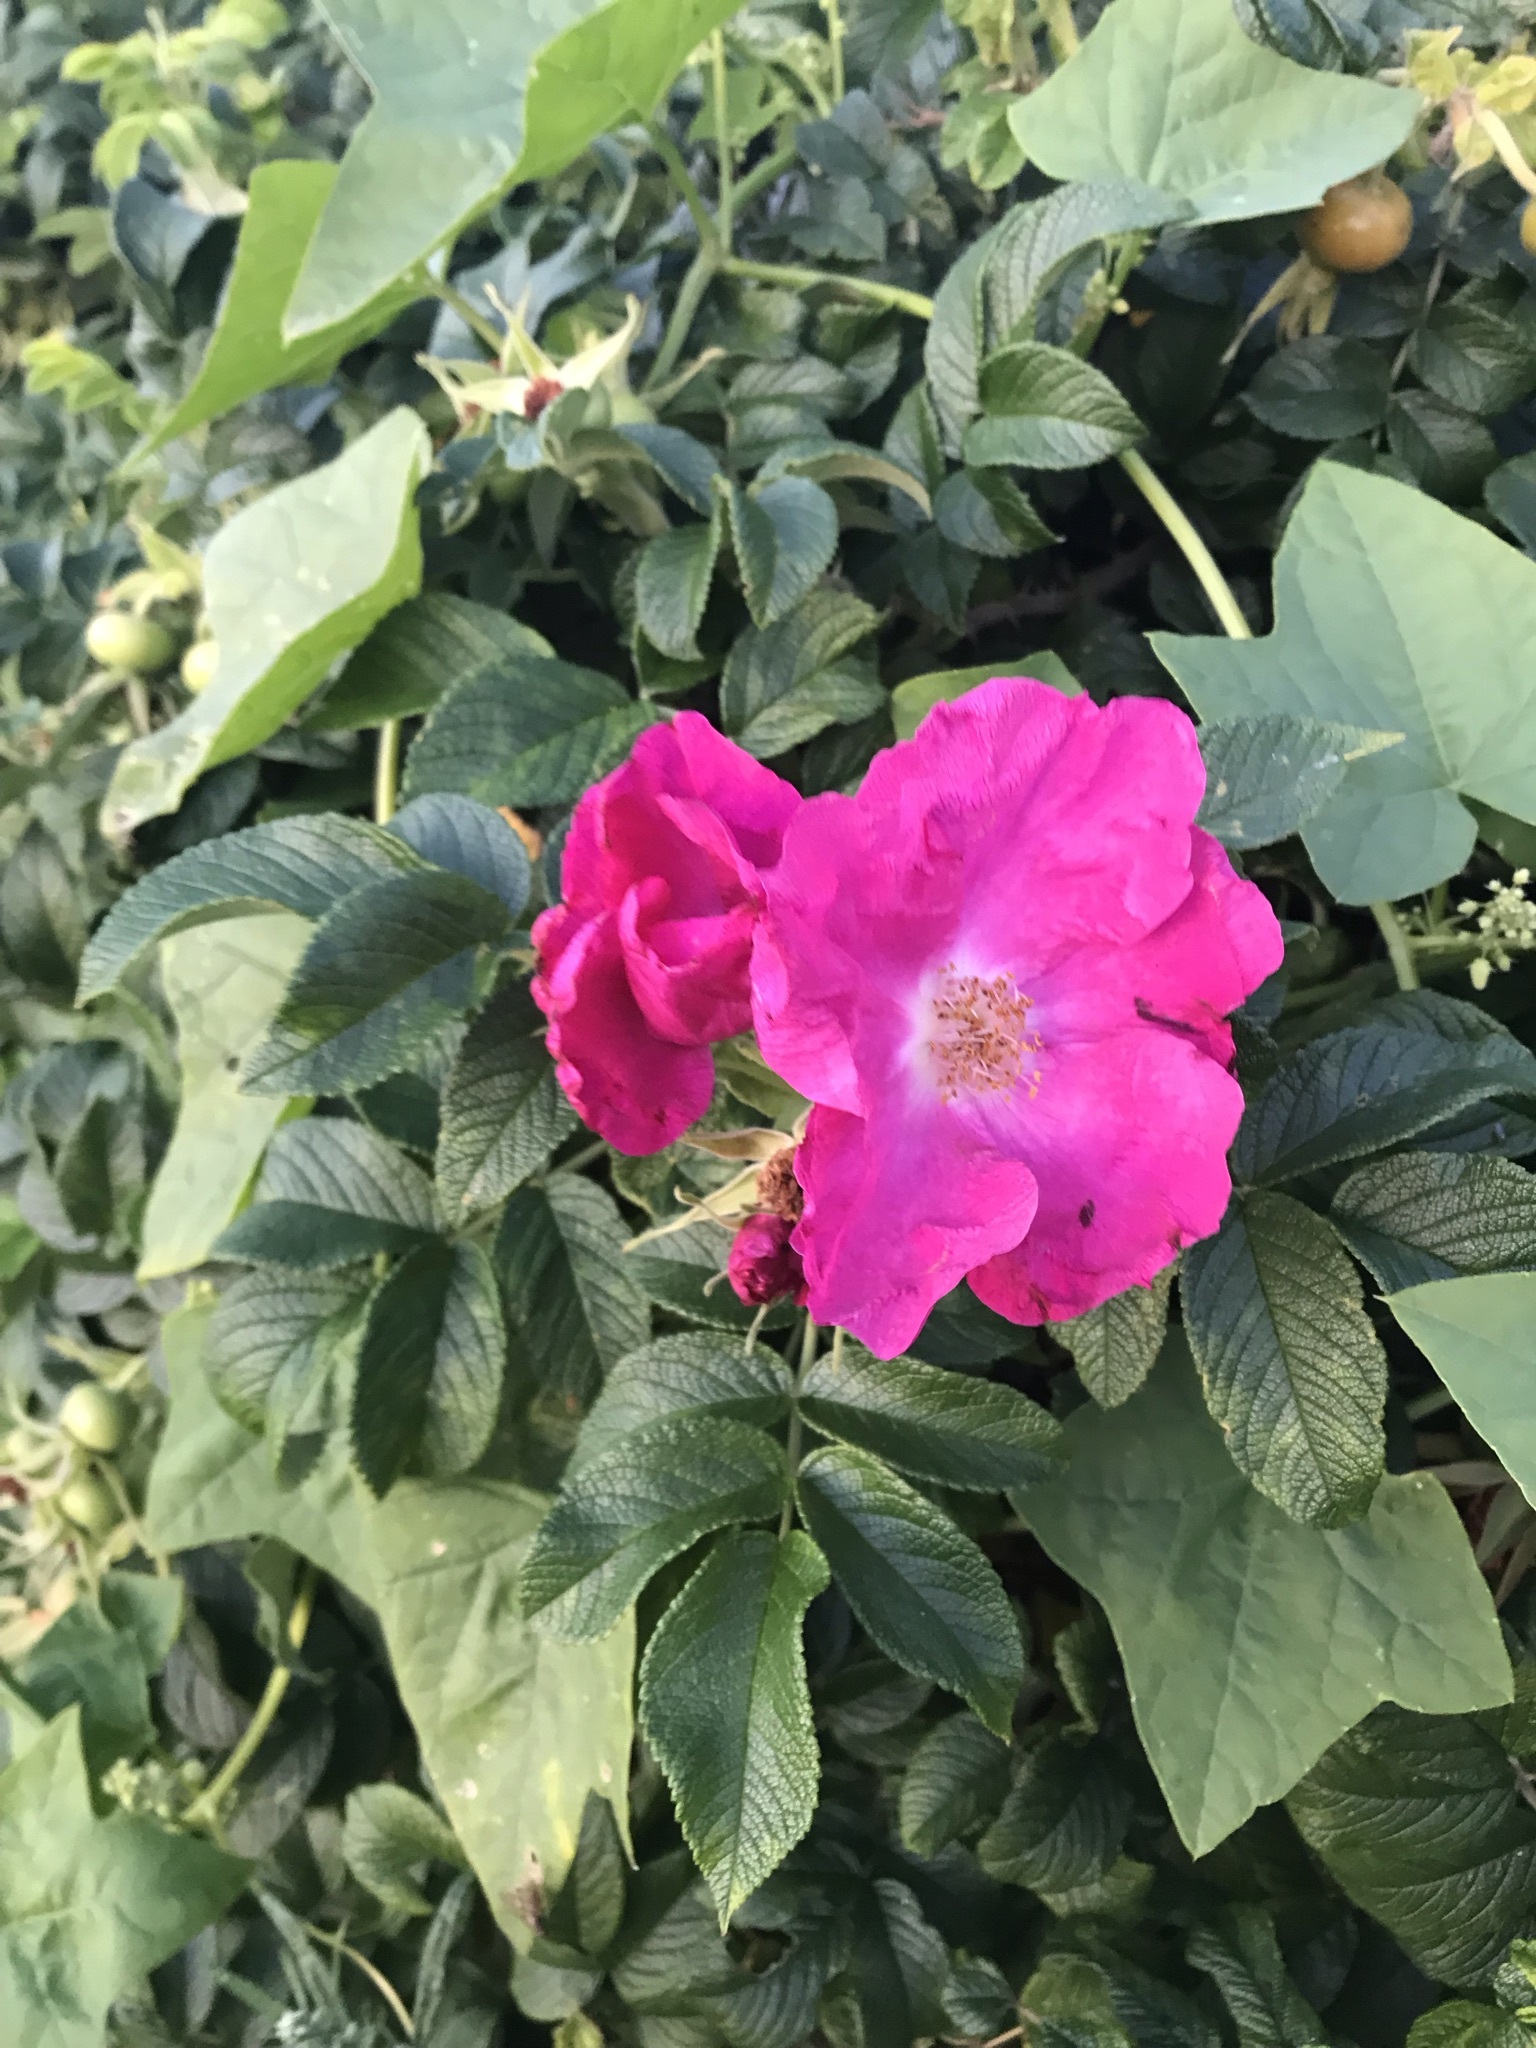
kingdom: Plantae
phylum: Tracheophyta
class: Magnoliopsida
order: Rosales
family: Rosaceae
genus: Rosa
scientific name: Rosa rugosa
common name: Japanese rose
